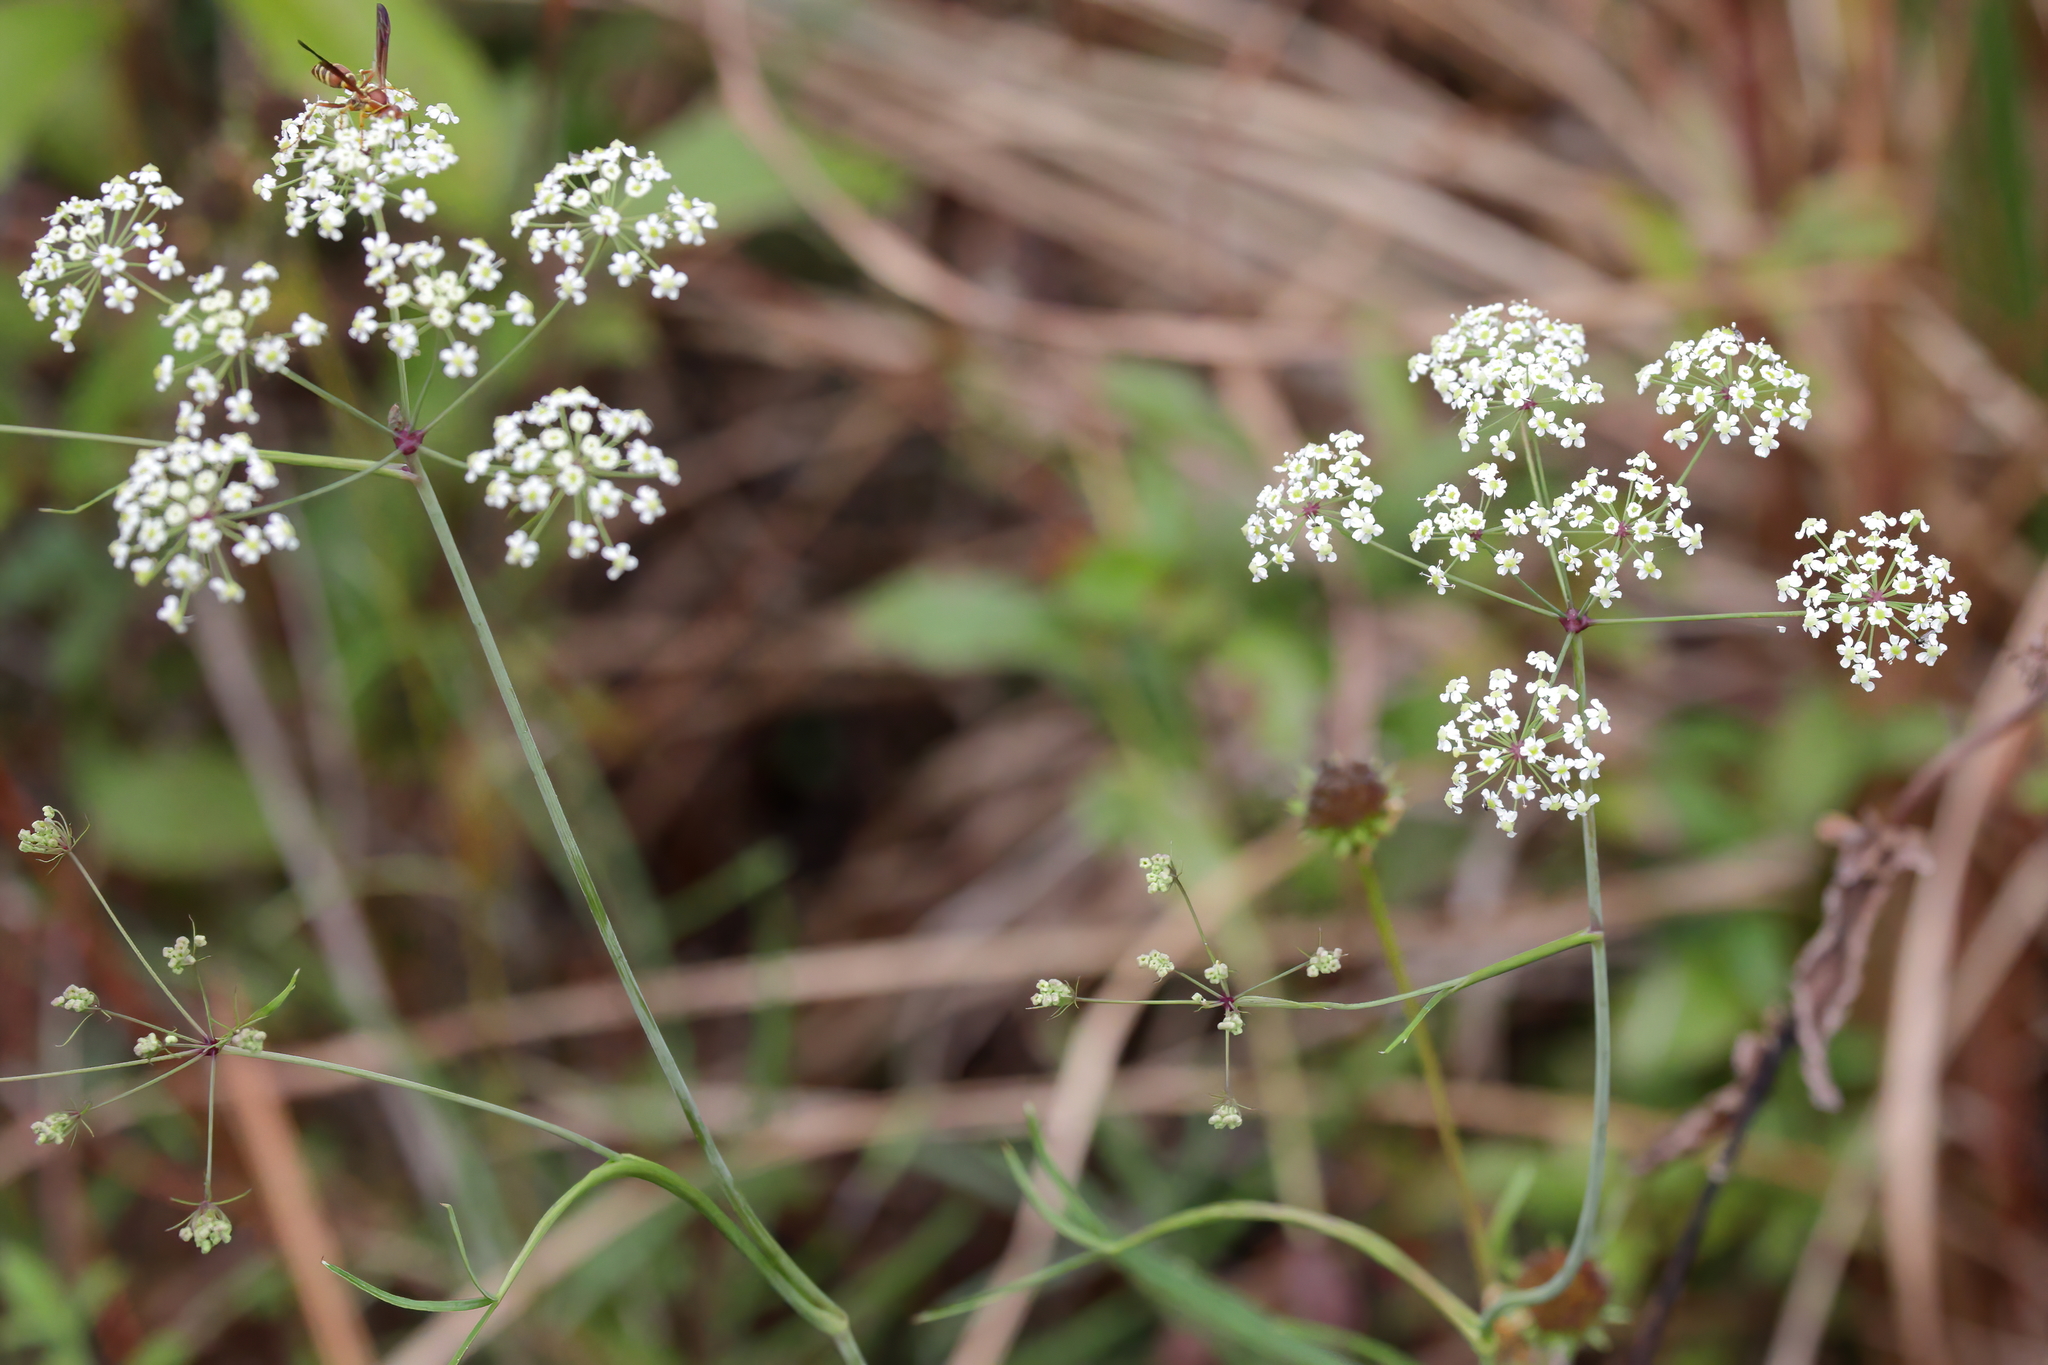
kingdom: Plantae
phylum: Tracheophyta
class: Magnoliopsida
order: Apiales
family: Apiaceae
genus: Tiedemannia
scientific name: Tiedemannia filiformis
